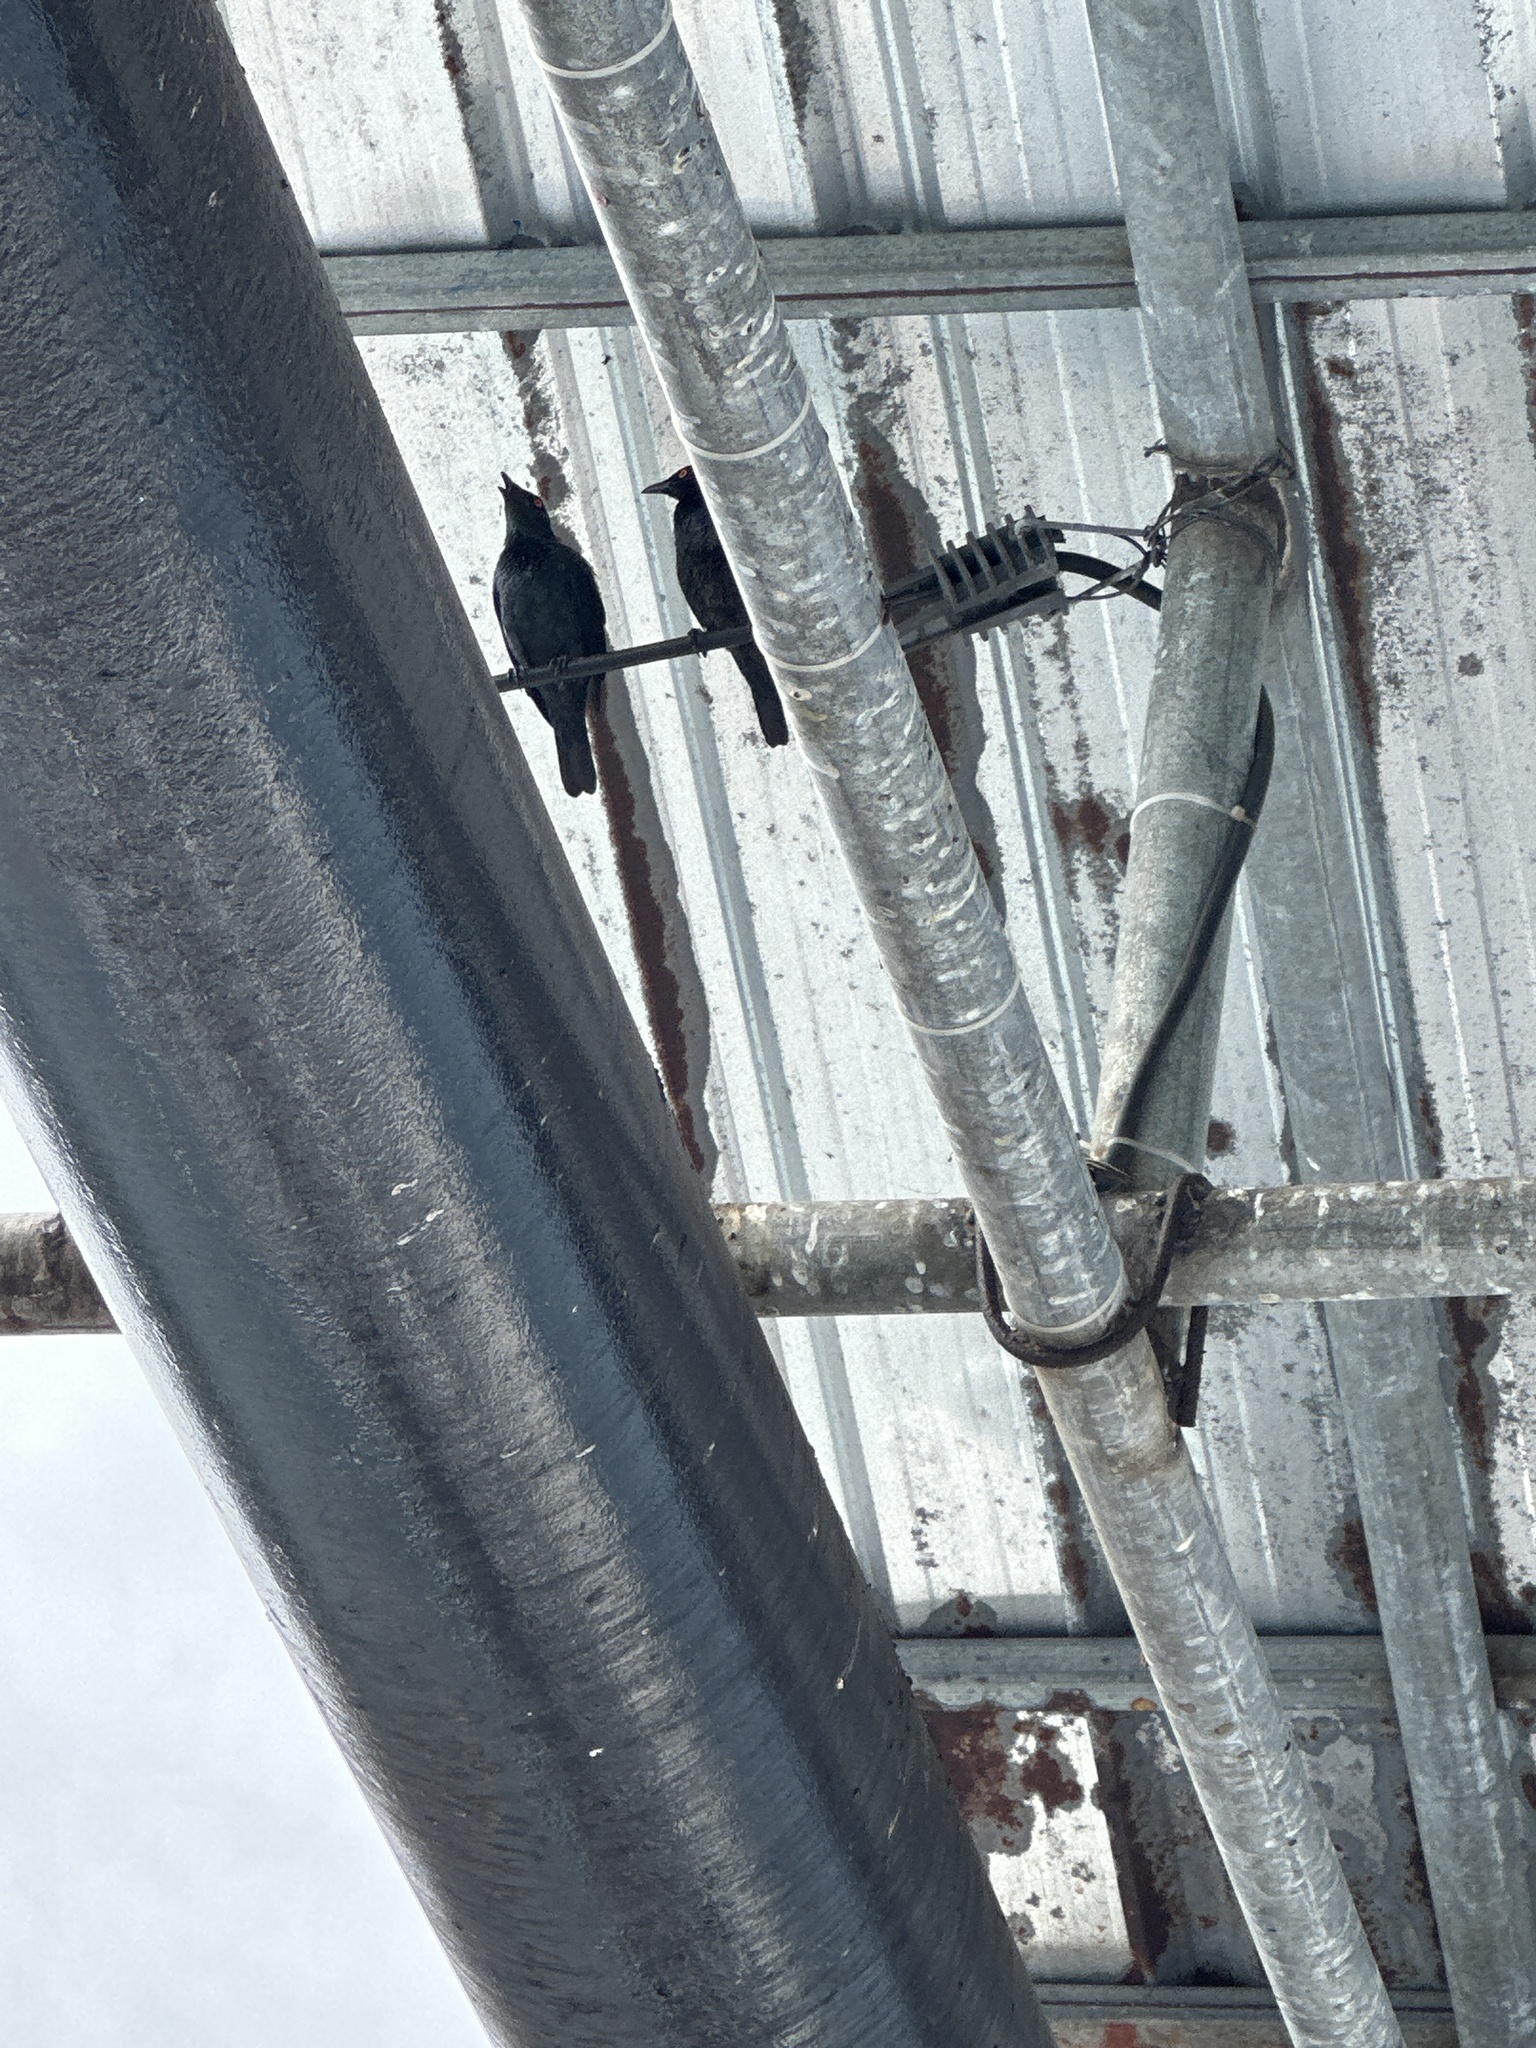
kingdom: Animalia
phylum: Chordata
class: Aves
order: Passeriformes
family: Sturnidae
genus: Aplonis
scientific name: Aplonis cantoroides
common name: Singing starling
